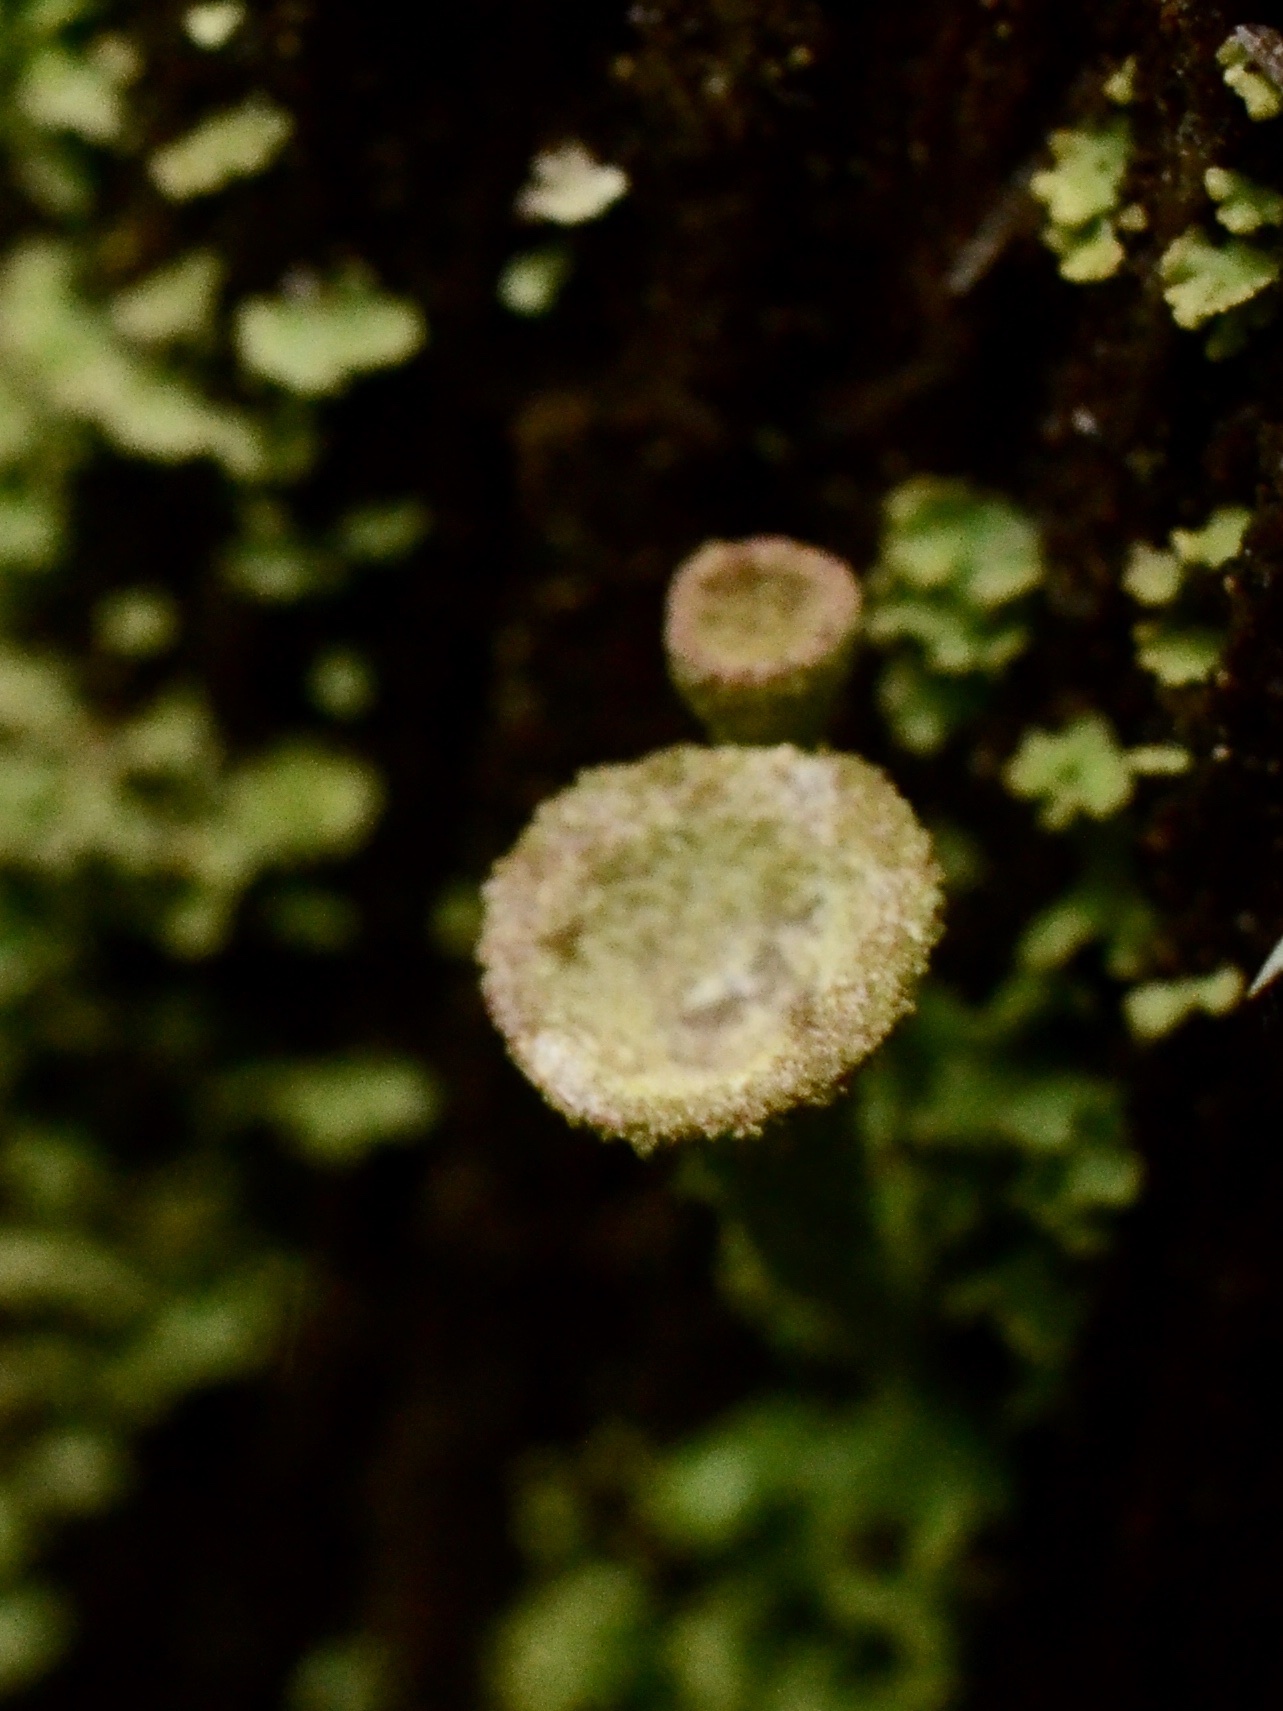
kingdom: Fungi
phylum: Ascomycota
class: Lecanoromycetes
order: Lecanorales
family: Cladoniaceae
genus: Cladonia
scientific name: Cladonia fimbriata
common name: Powdered trumpet lichen
